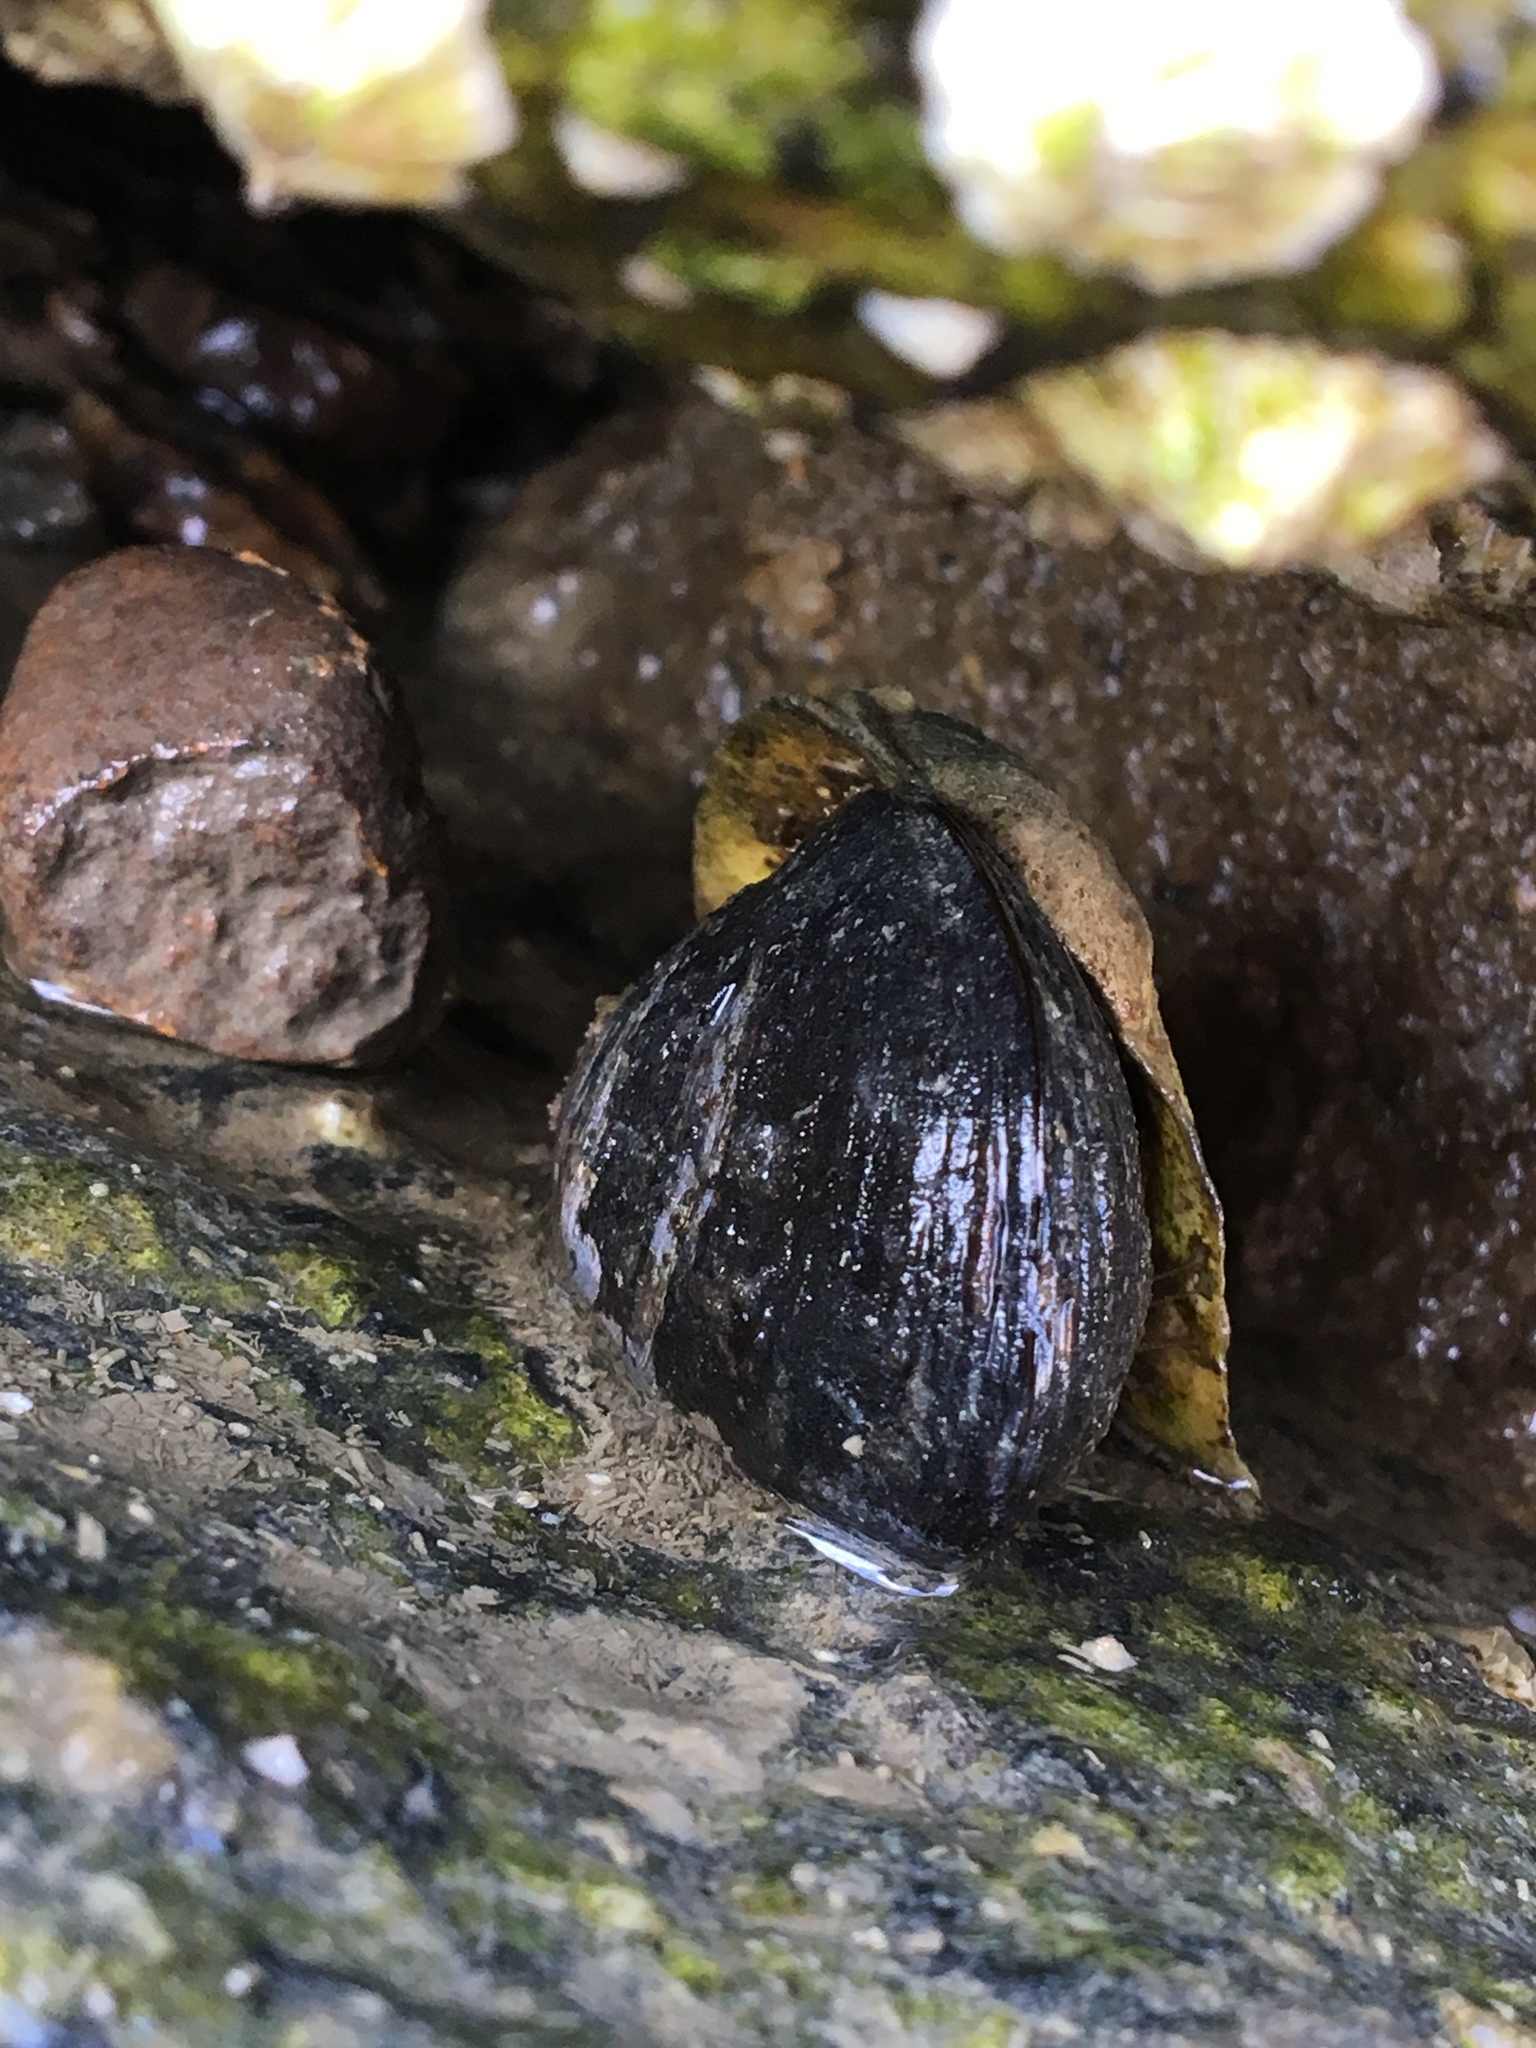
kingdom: Animalia
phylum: Mollusca
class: Bivalvia
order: Mytilida
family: Mytilidae
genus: Mytilus
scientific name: Mytilus edulis
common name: Blue mussel
